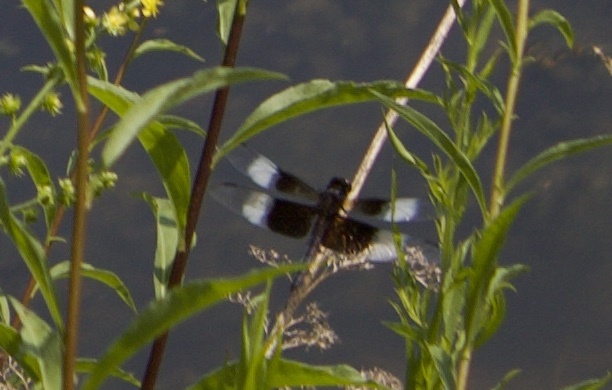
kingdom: Animalia
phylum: Arthropoda
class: Insecta
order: Odonata
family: Libellulidae
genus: Libellula
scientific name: Libellula luctuosa
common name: Widow skimmer
